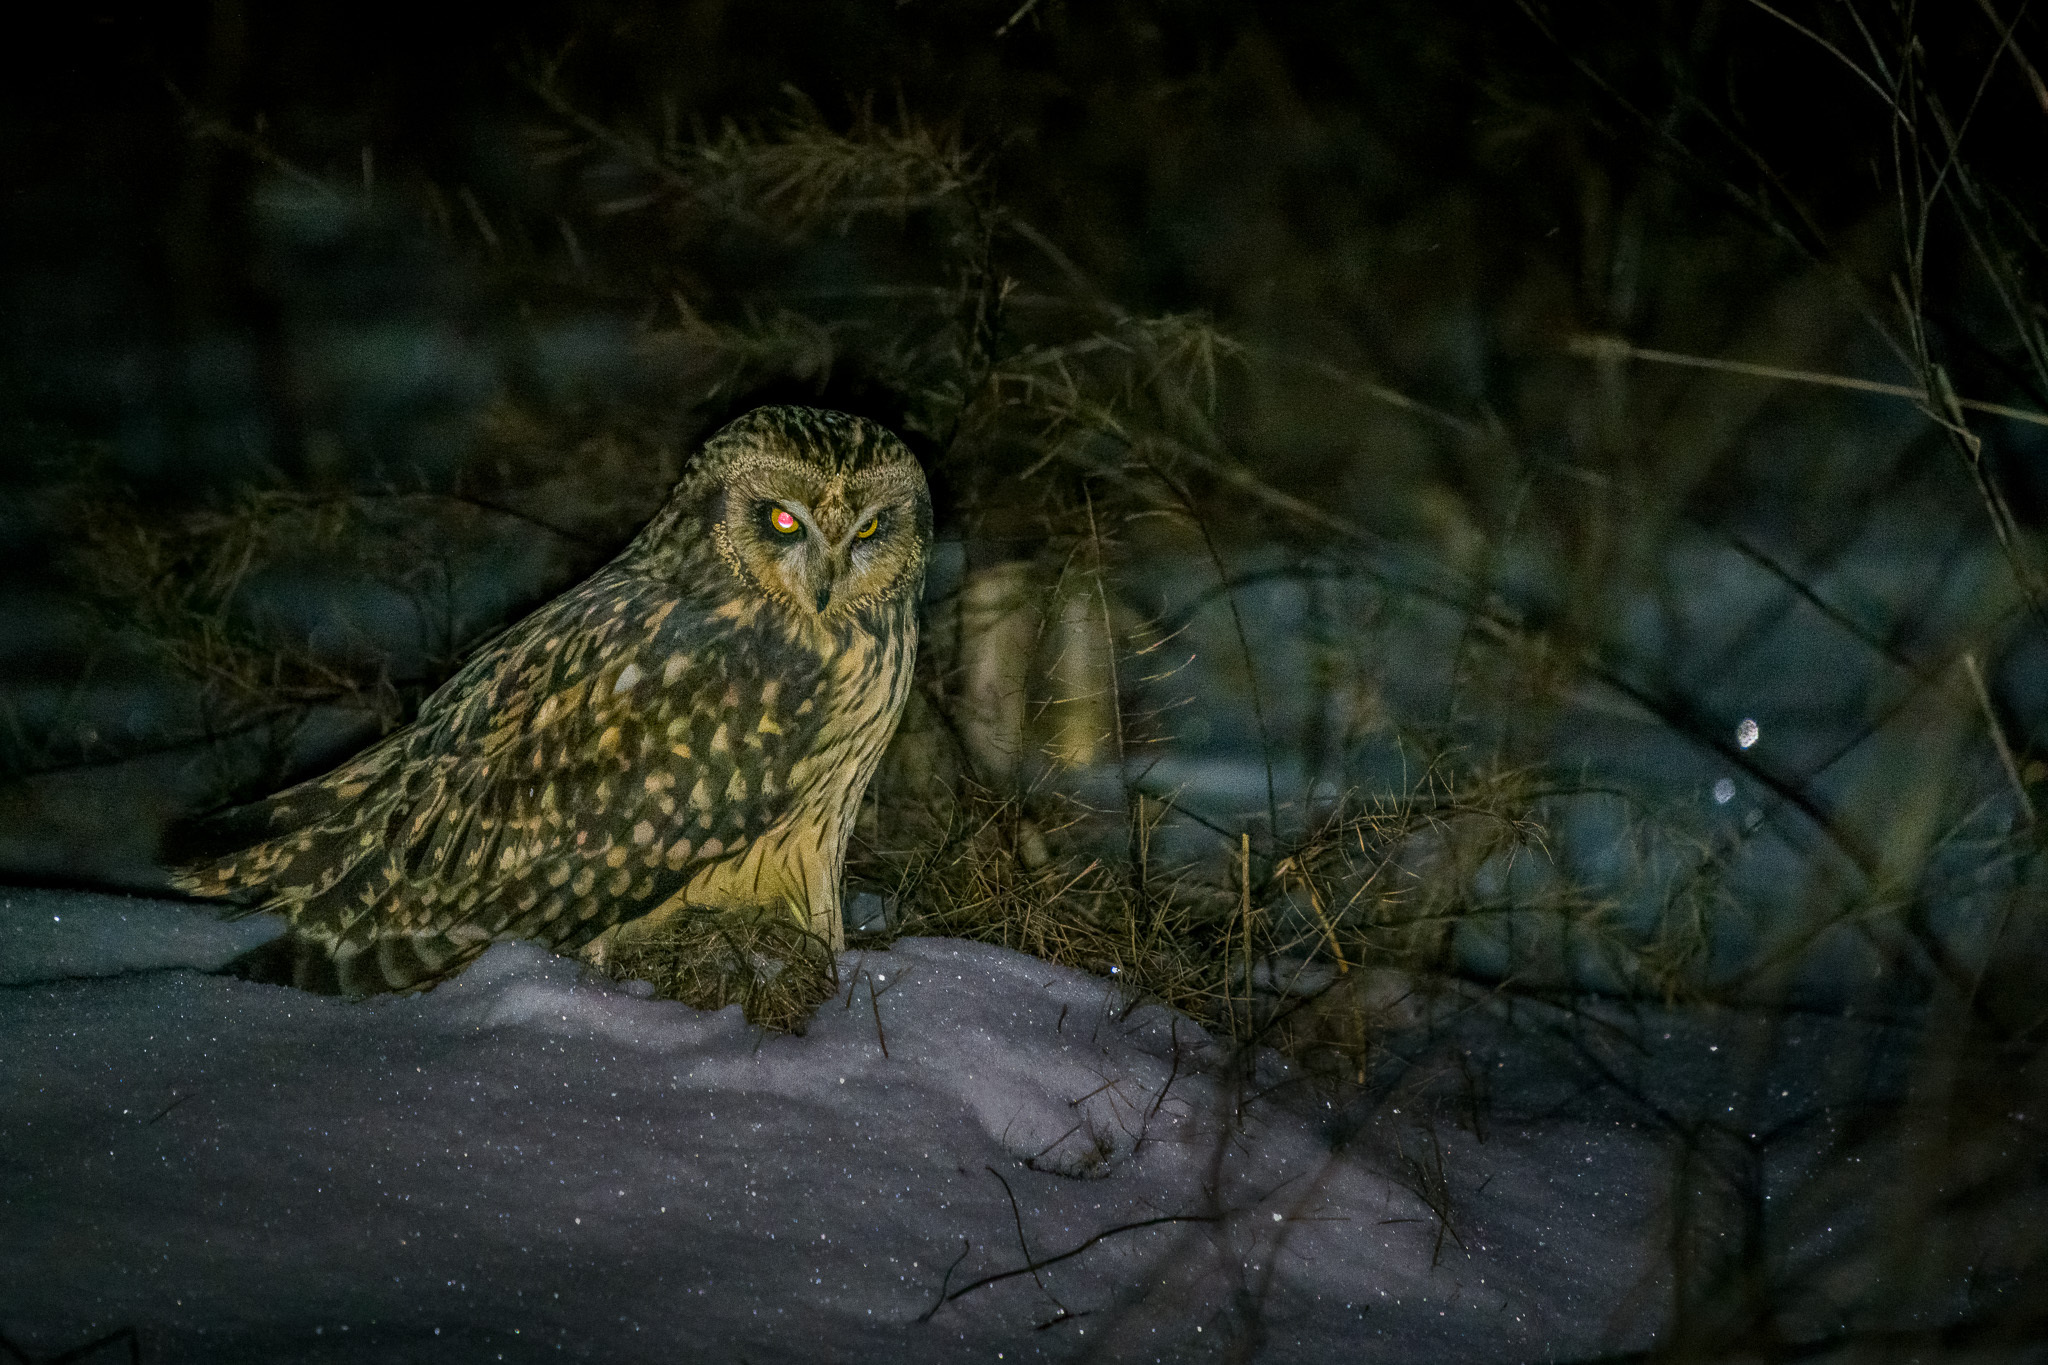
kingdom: Animalia
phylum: Chordata
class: Aves
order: Strigiformes
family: Strigidae
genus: Asio
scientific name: Asio flammeus
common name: Short-eared owl
